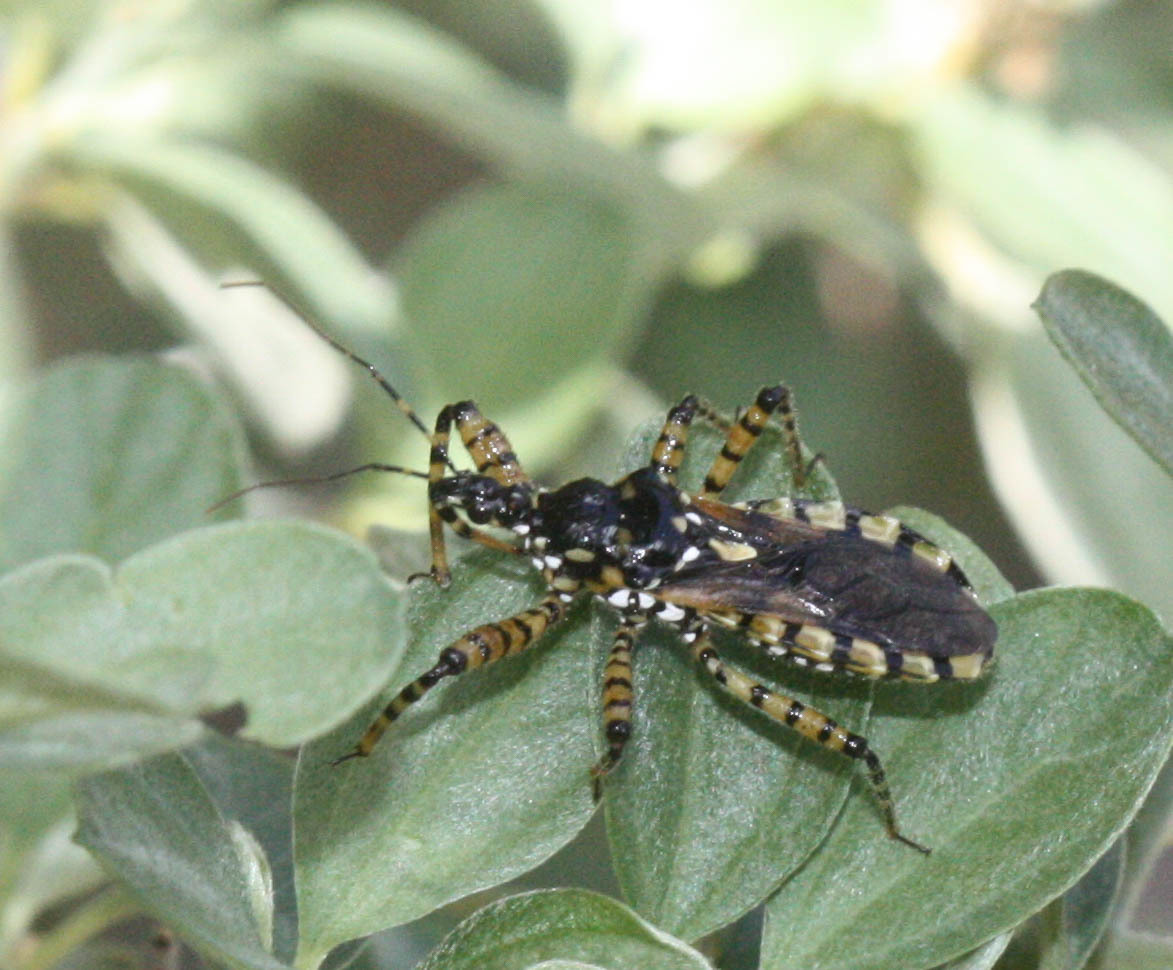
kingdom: Animalia
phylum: Arthropoda
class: Insecta
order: Hemiptera
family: Reduviidae
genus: Pselliopus
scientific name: Pselliopus marmorosus
